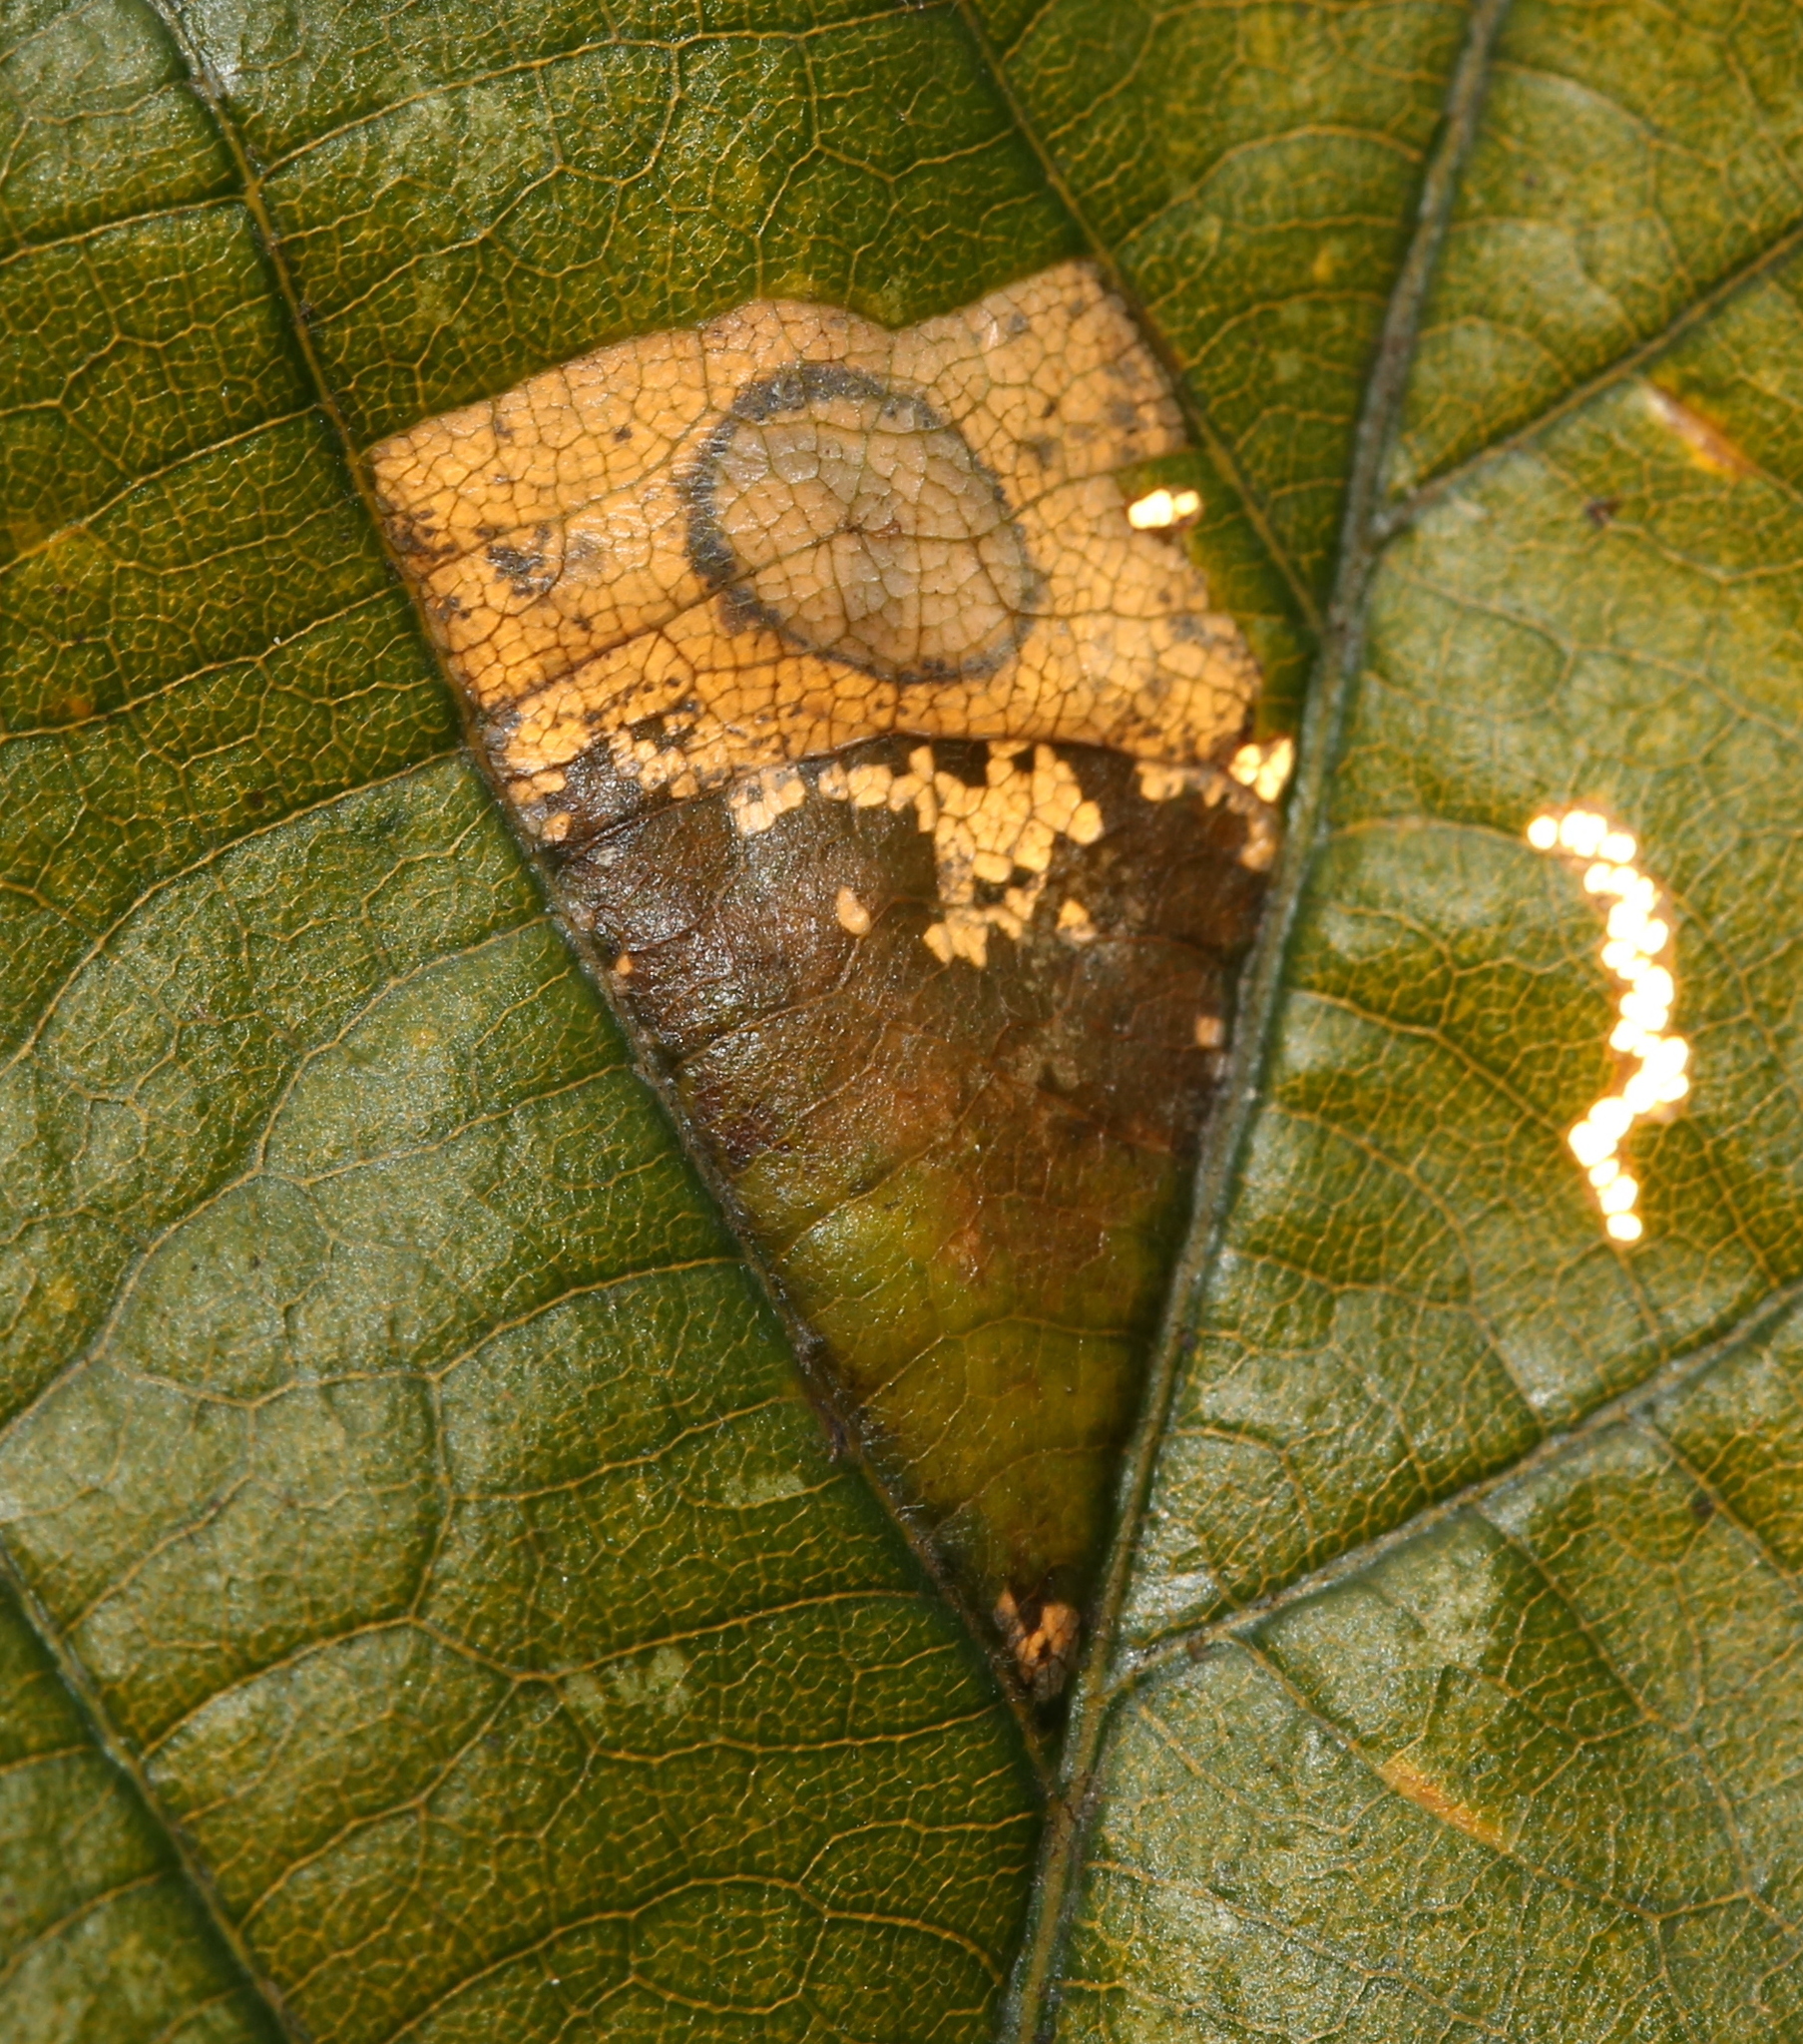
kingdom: Animalia
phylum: Arthropoda
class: Insecta
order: Lepidoptera
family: Gracillariidae
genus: Phyllonorycter
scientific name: Phyllonorycter basistrigella
